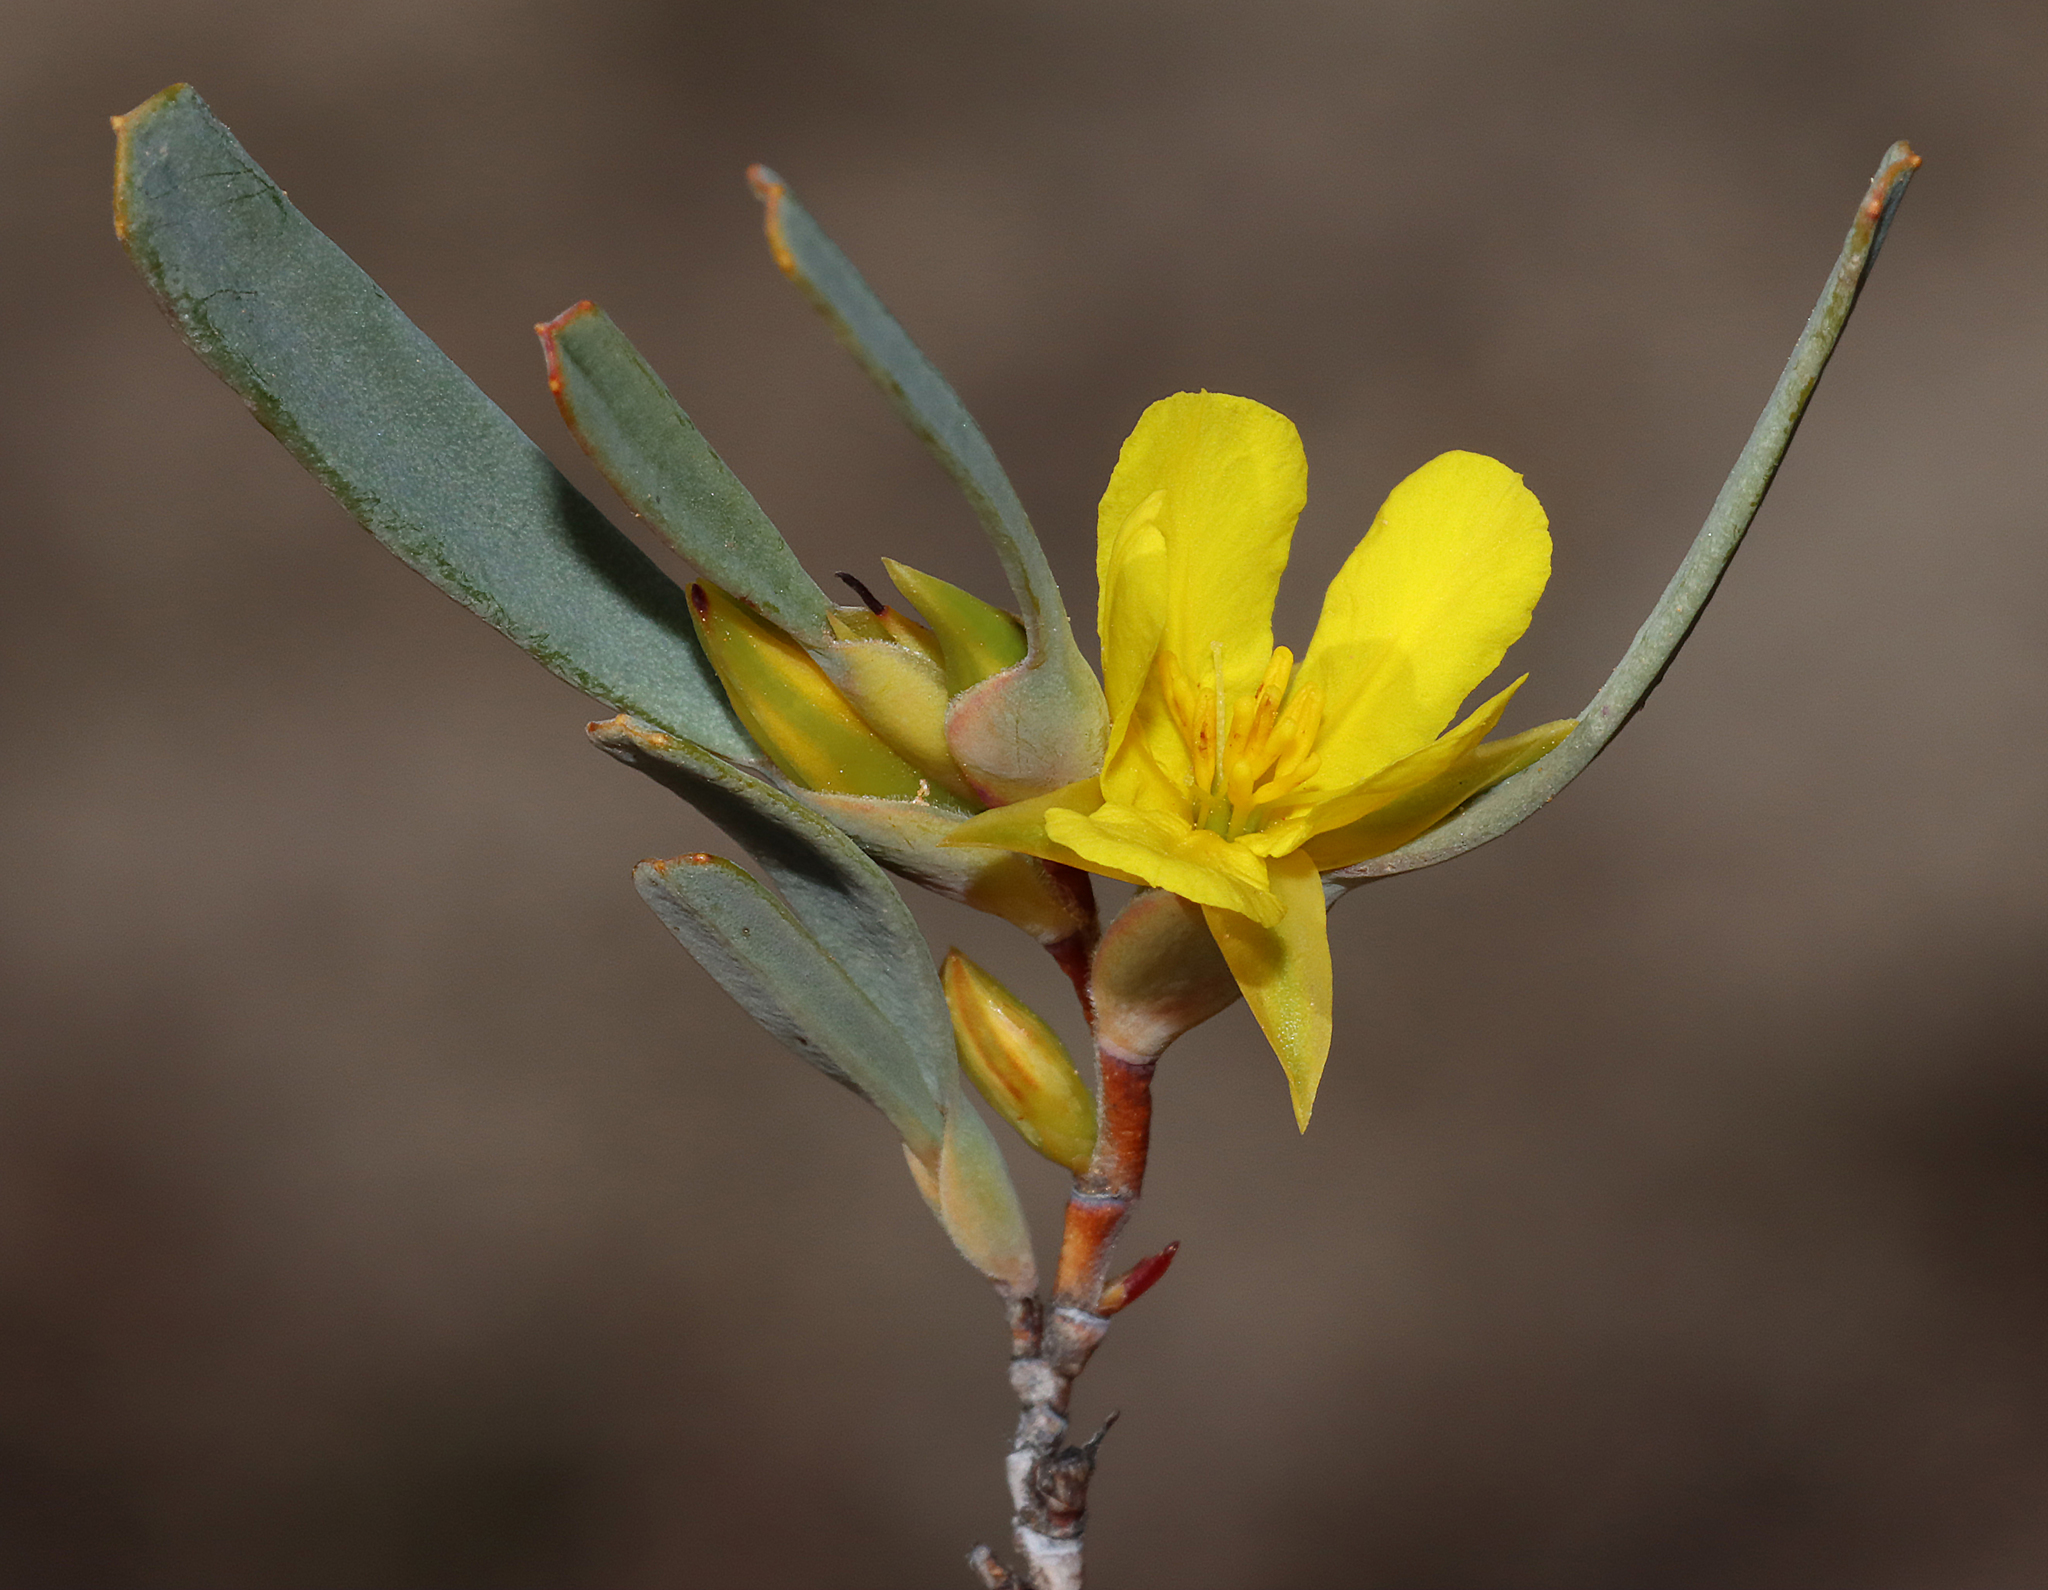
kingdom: Plantae
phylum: Tracheophyta
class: Magnoliopsida
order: Dilleniales
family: Dilleniaceae
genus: Hibbertia
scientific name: Hibbertia subvaginata
